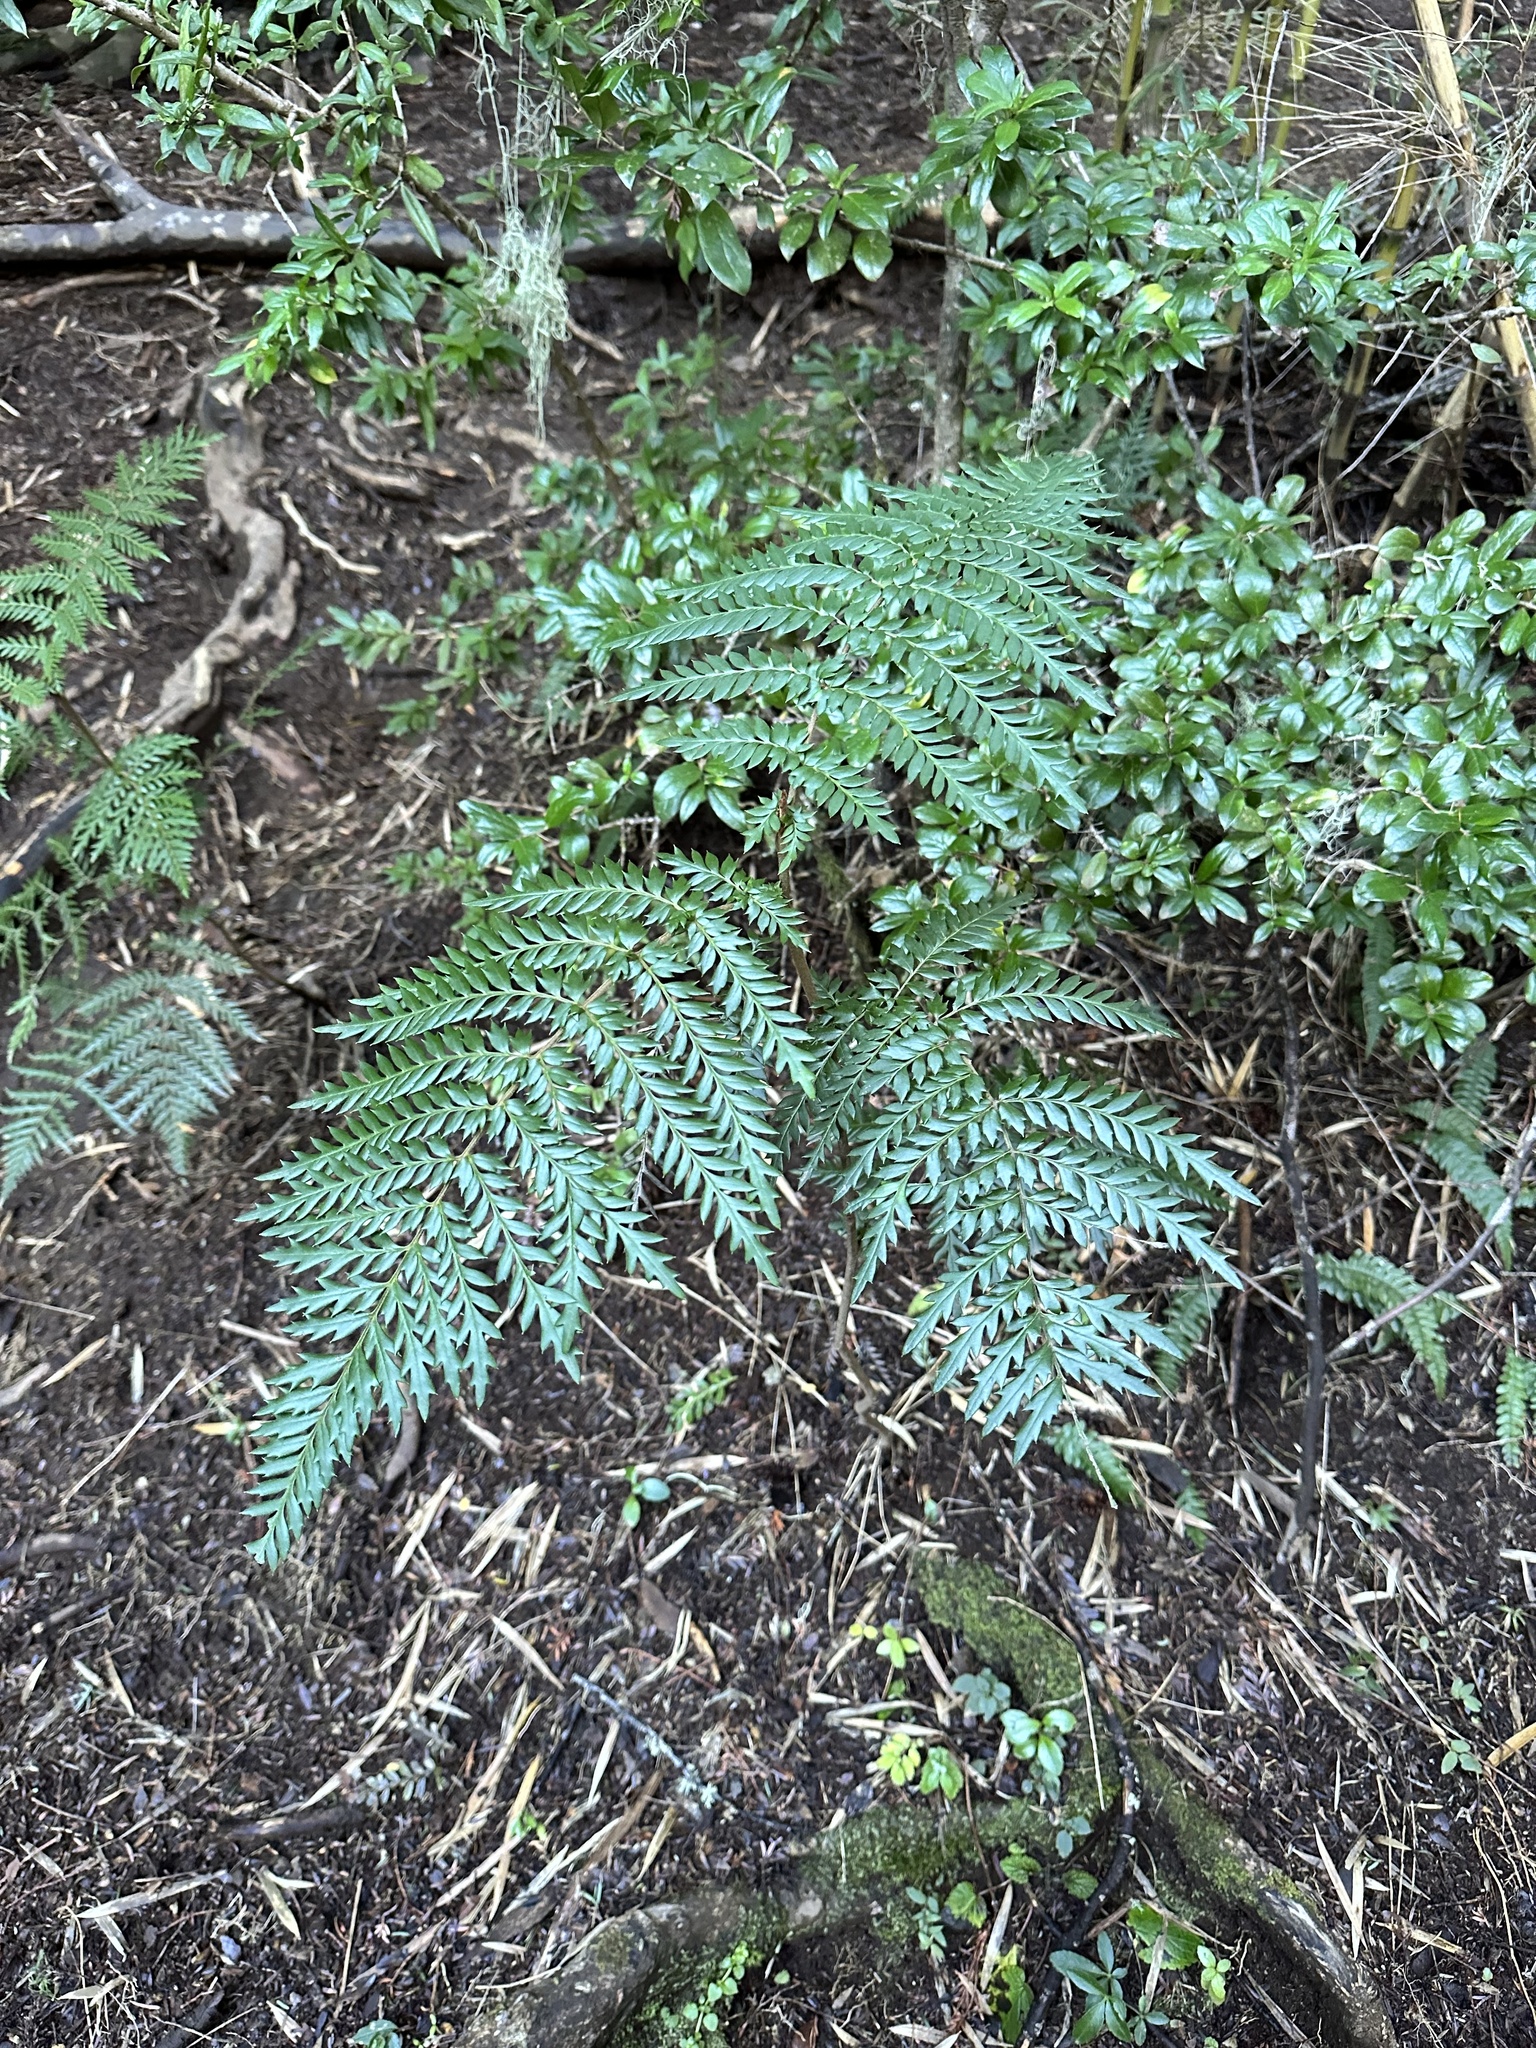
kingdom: Plantae
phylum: Tracheophyta
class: Magnoliopsida
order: Proteales
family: Proteaceae
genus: Lomatia
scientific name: Lomatia ferruginea
